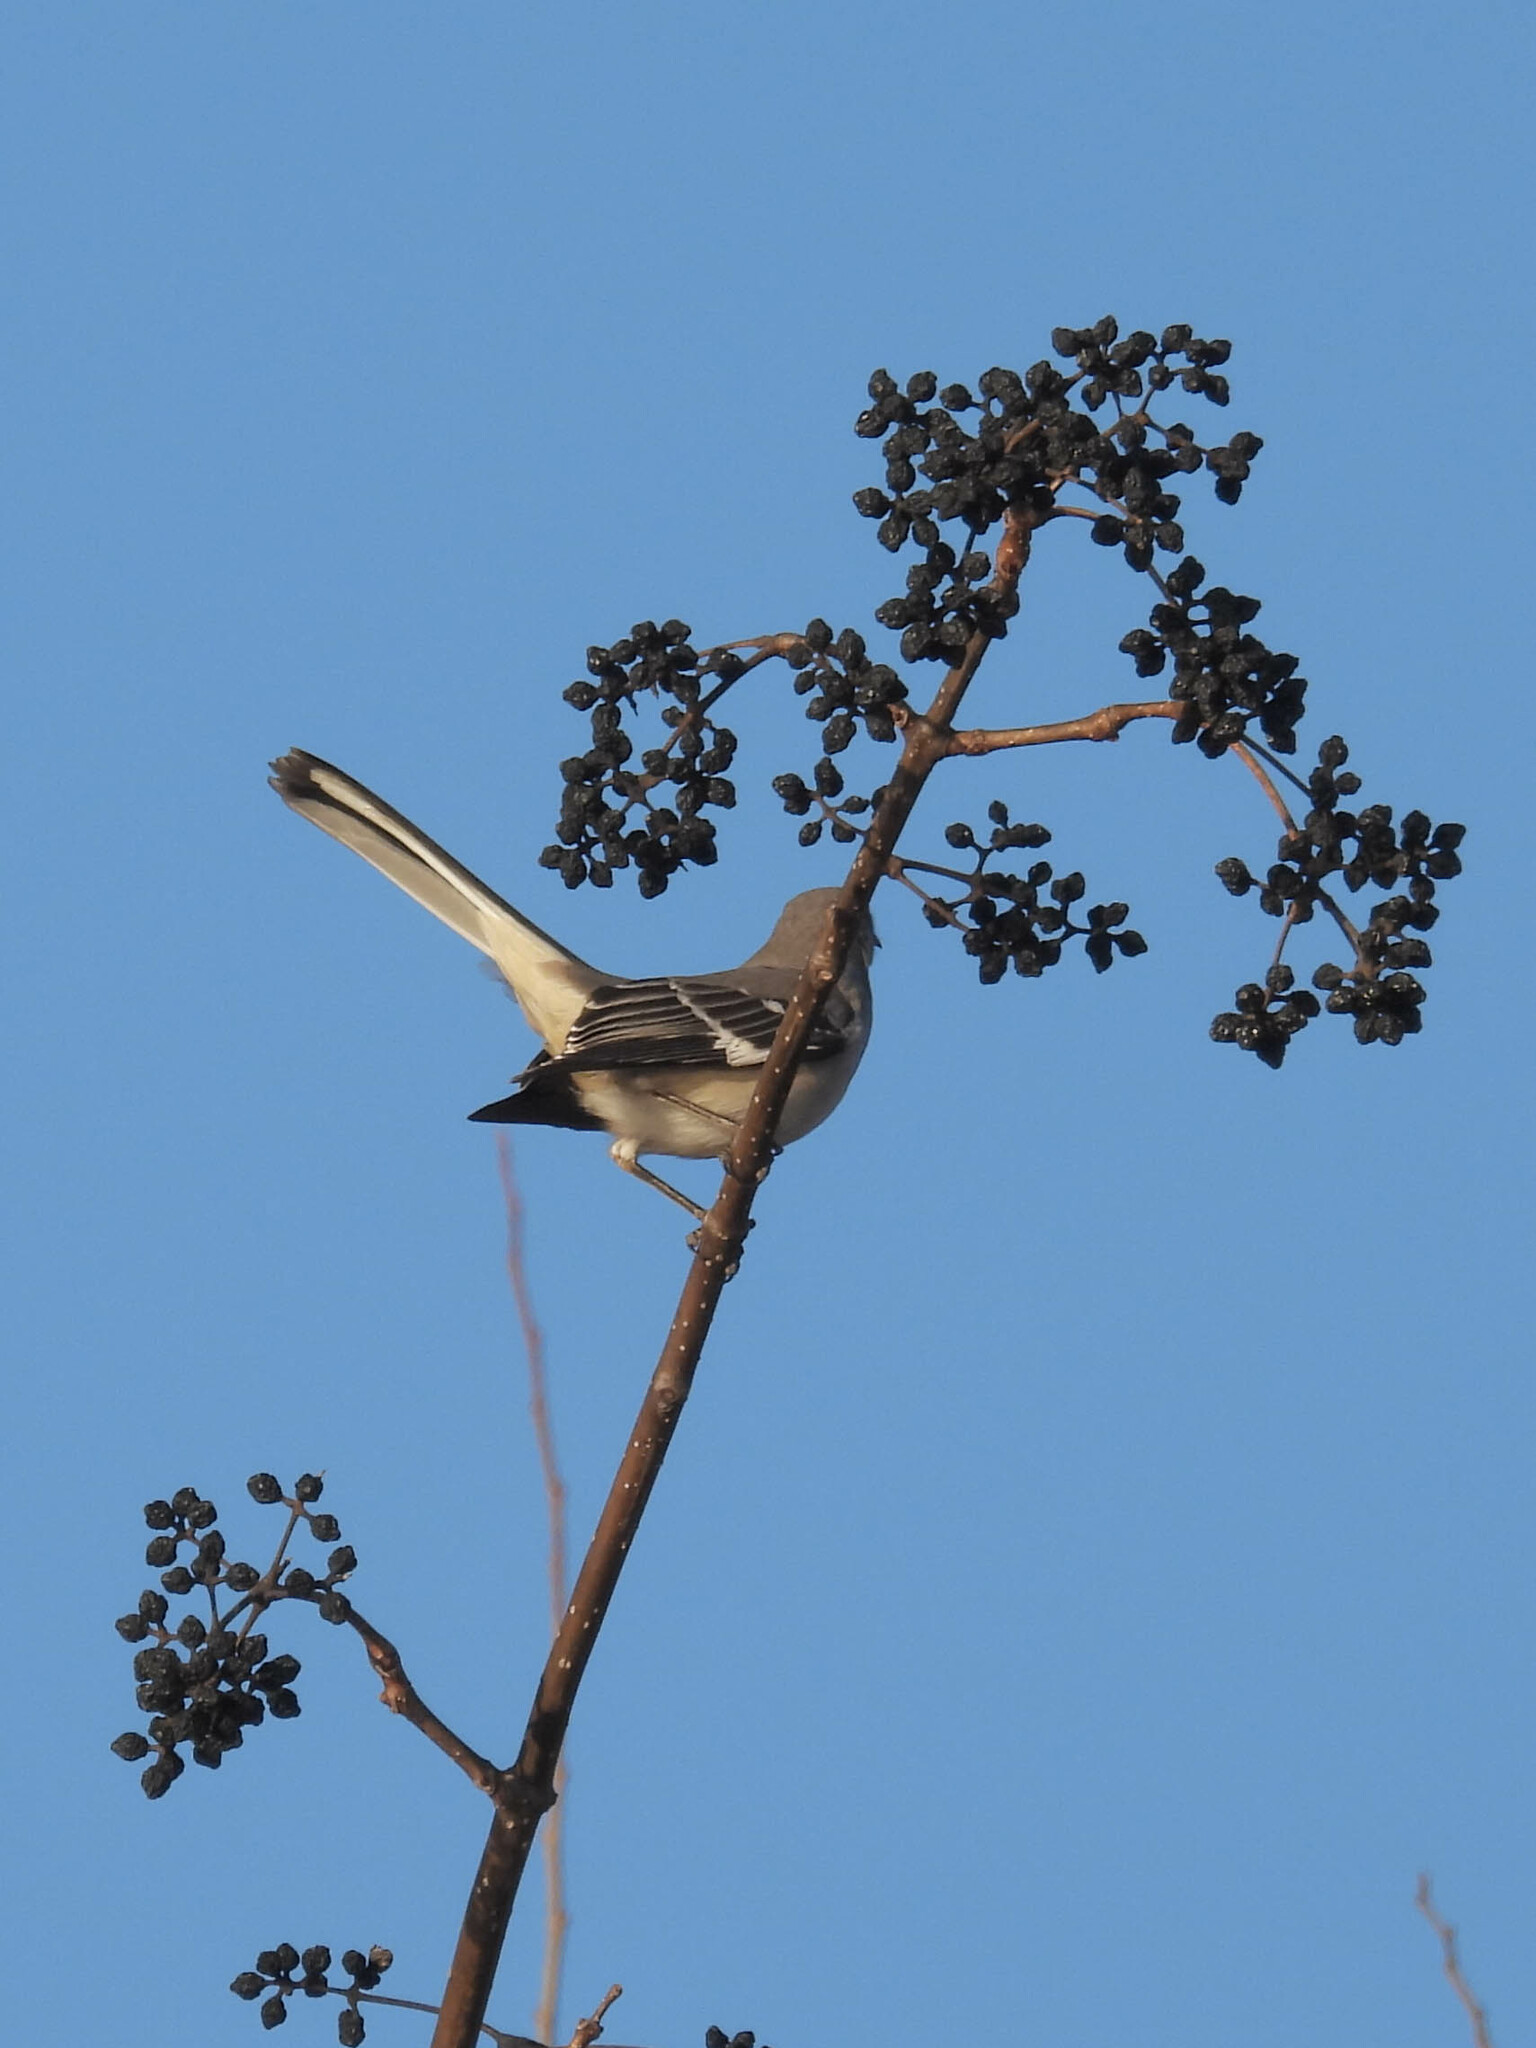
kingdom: Animalia
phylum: Chordata
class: Aves
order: Passeriformes
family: Mimidae
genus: Mimus
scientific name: Mimus polyglottos
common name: Northern mockingbird
